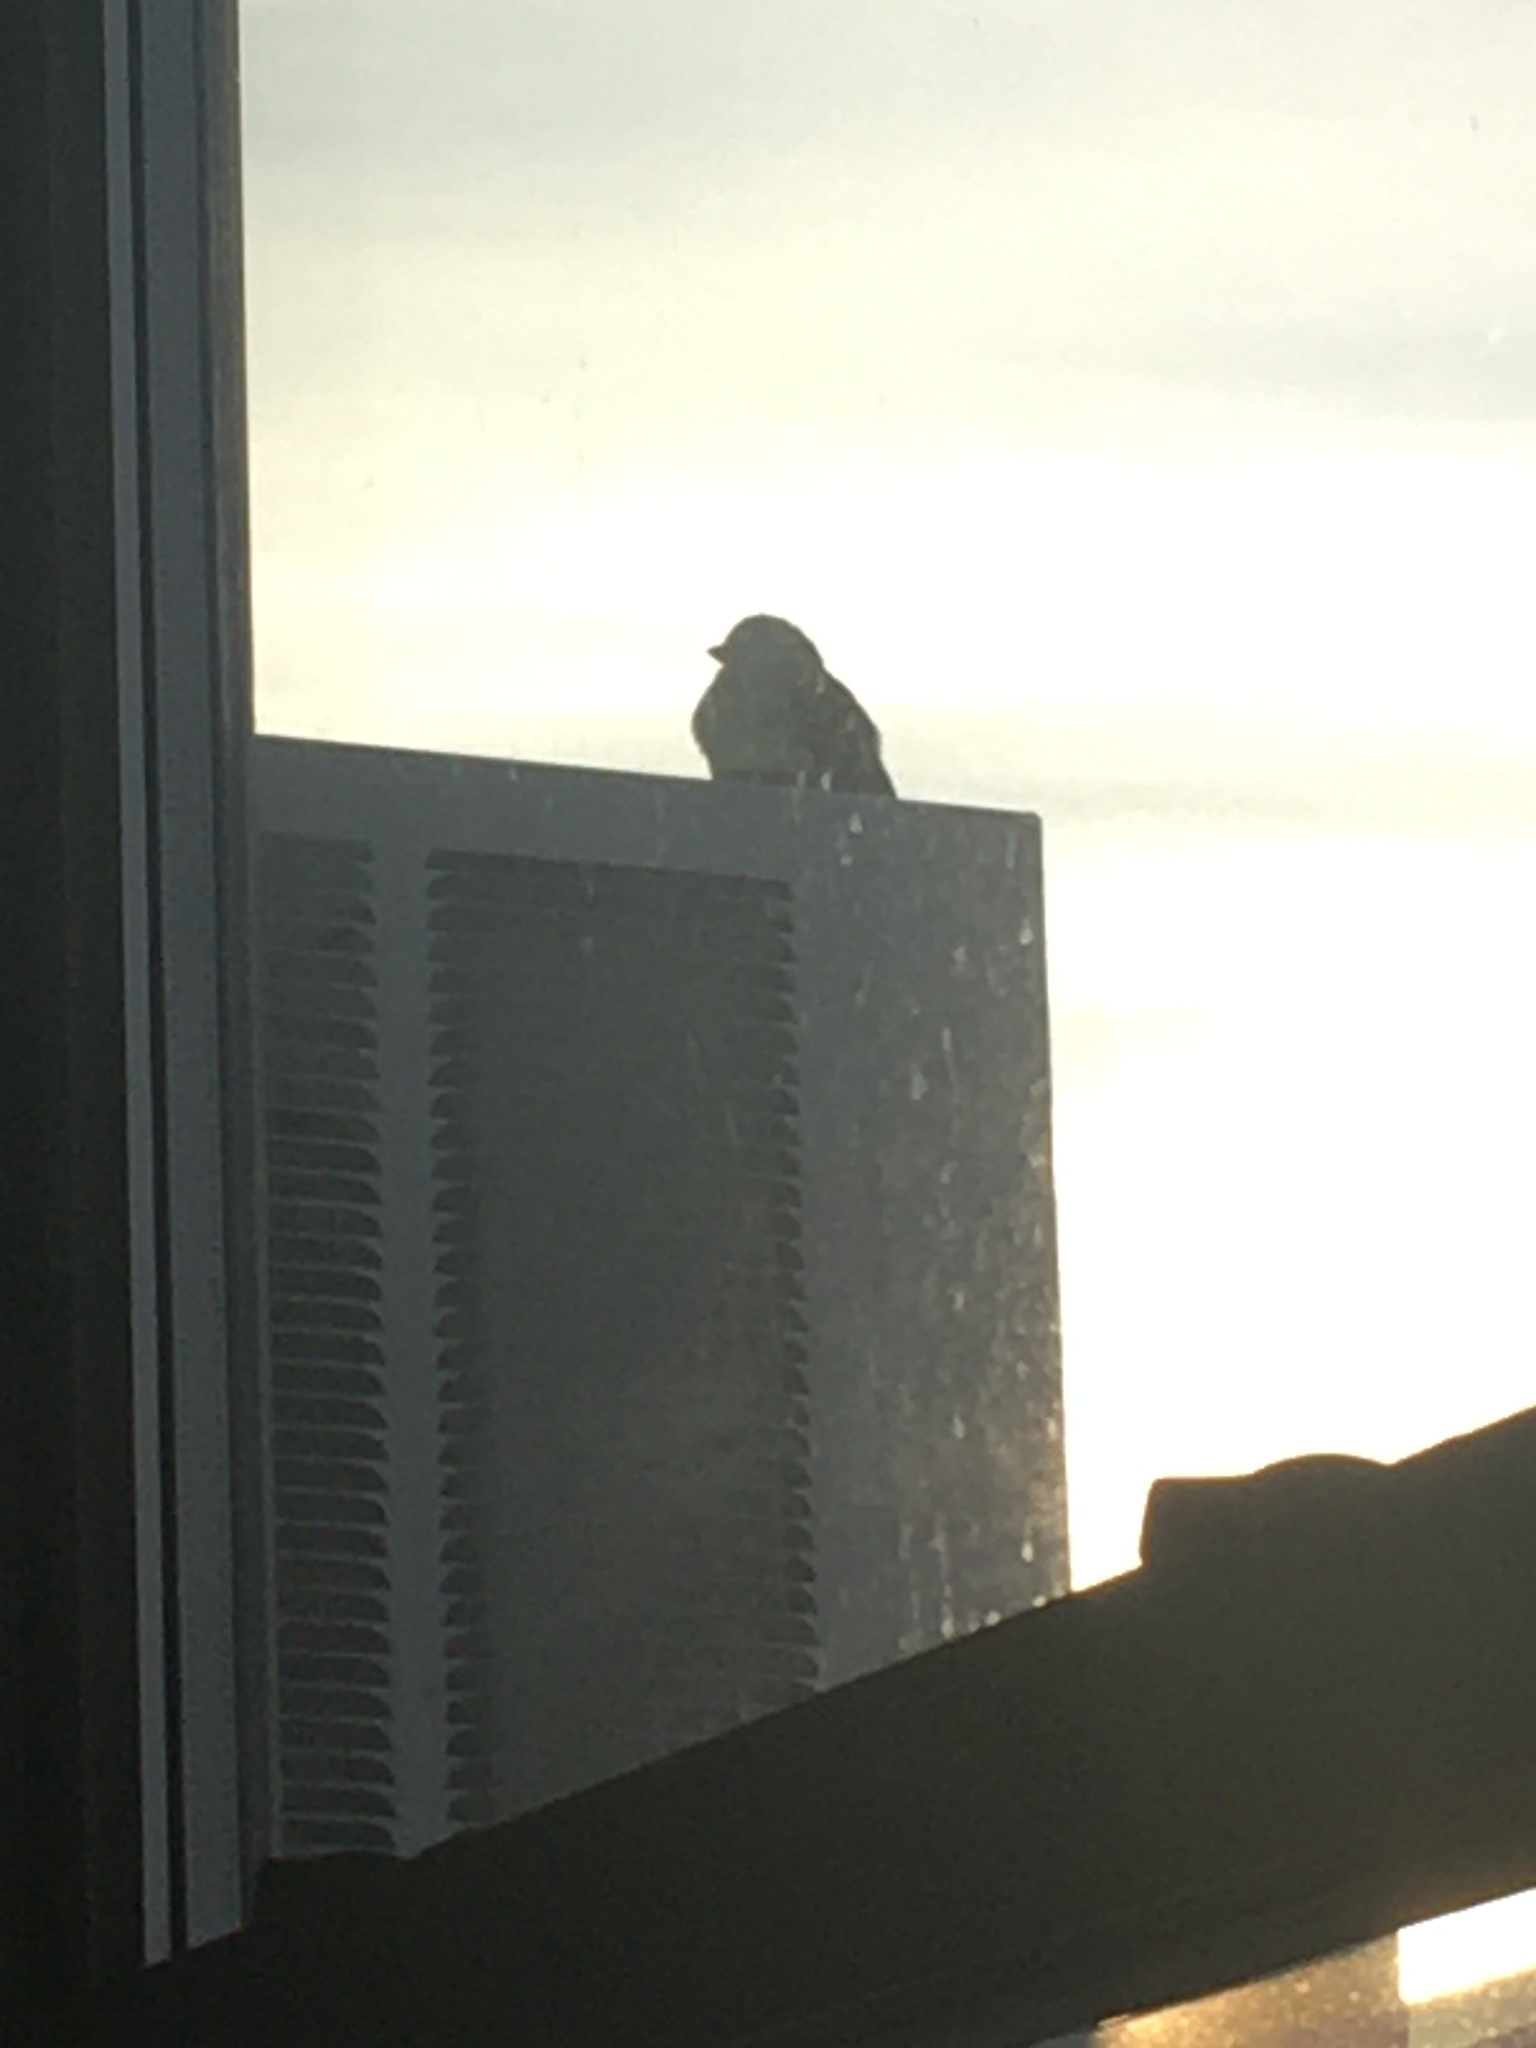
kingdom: Animalia
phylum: Chordata
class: Aves
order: Passeriformes
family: Passeridae
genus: Passer
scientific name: Passer domesticus
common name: House sparrow
